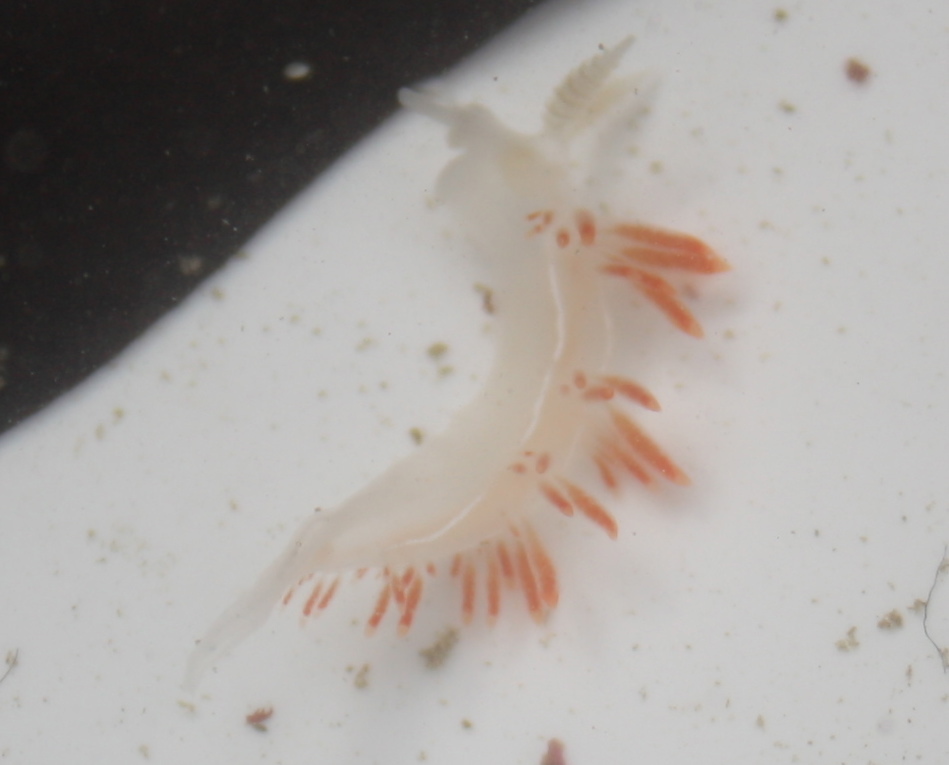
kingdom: Animalia
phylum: Mollusca
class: Gastropoda
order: Nudibranchia
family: Coryphellidae
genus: Coryphella
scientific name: Coryphella trilineata
